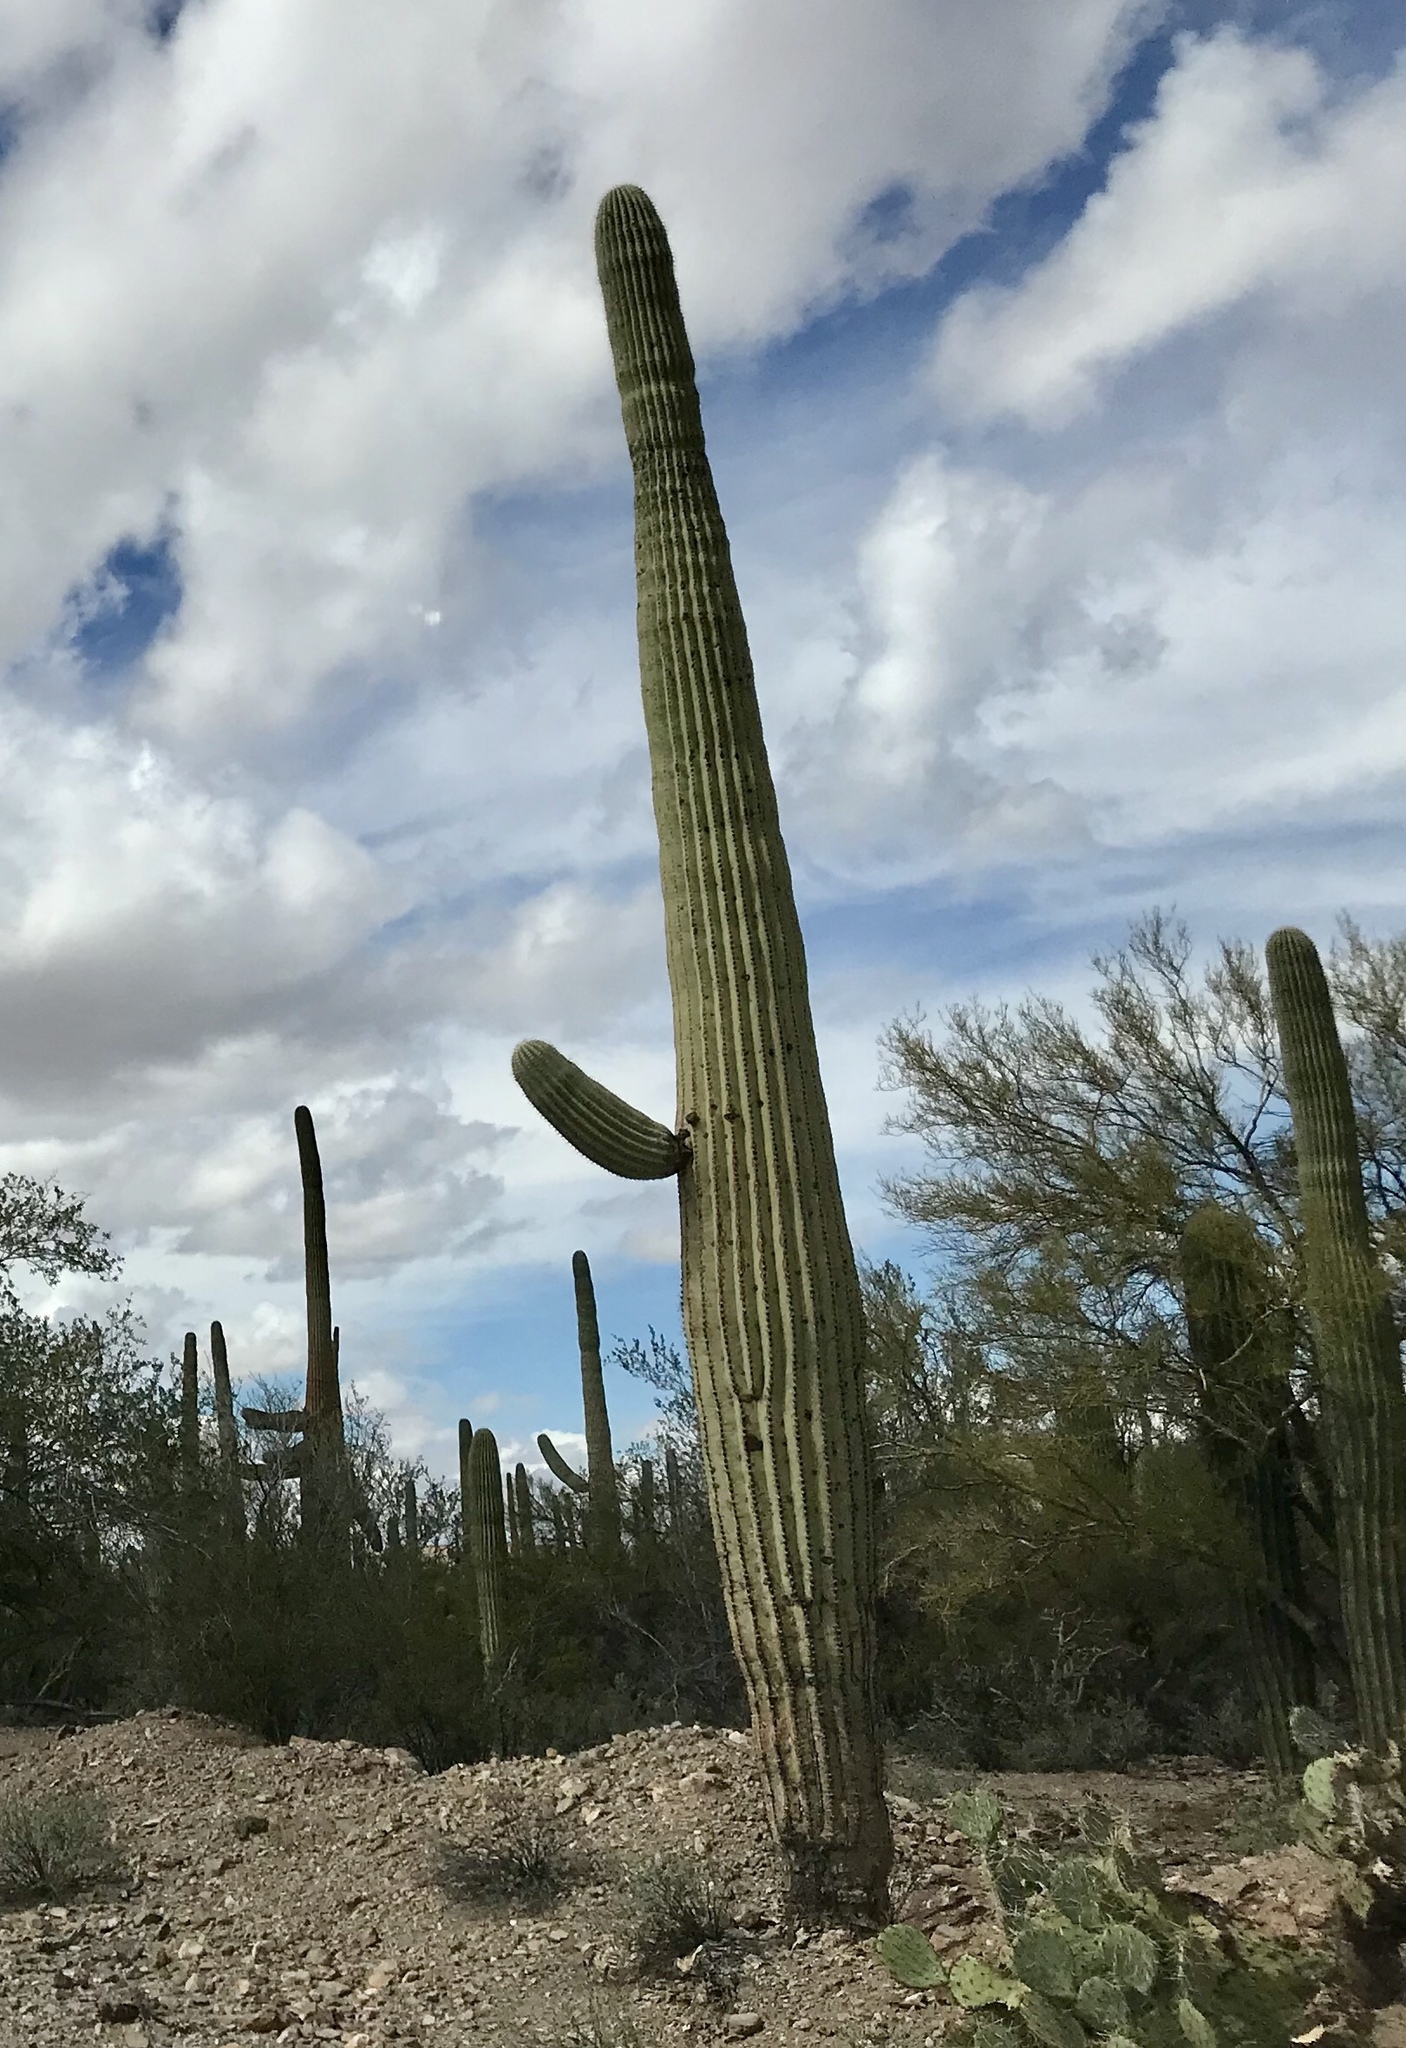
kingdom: Plantae
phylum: Tracheophyta
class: Magnoliopsida
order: Caryophyllales
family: Cactaceae
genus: Carnegiea
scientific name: Carnegiea gigantea
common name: Saguaro
